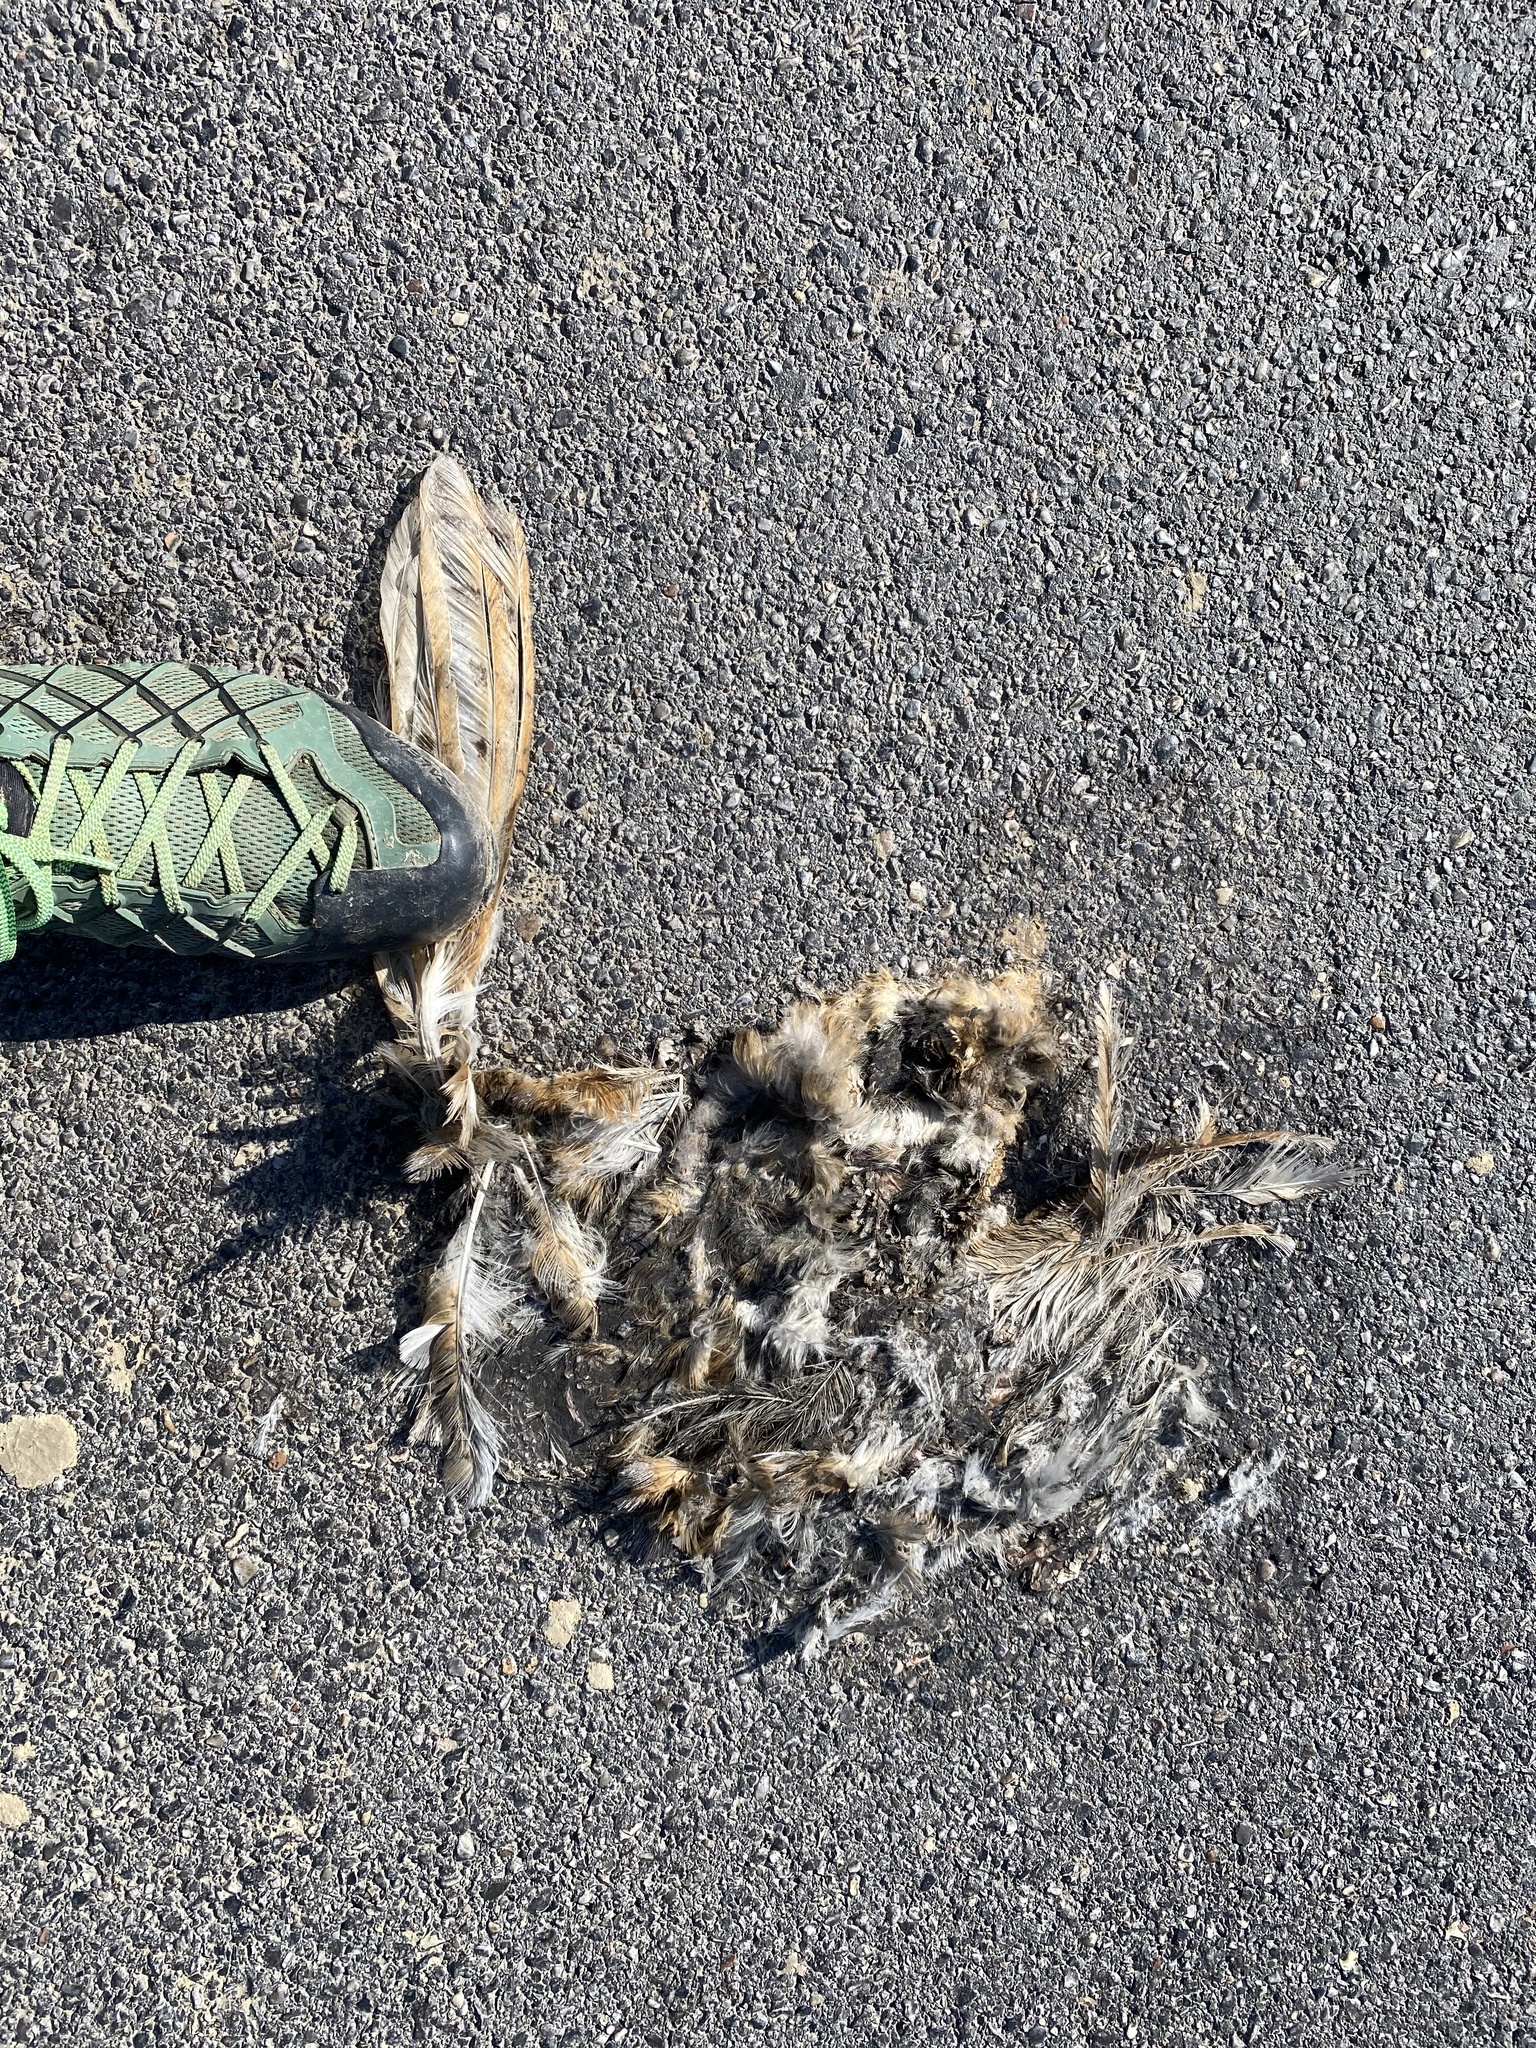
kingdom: Animalia
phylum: Chordata
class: Aves
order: Strigiformes
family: Tytonidae
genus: Tyto
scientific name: Tyto alba
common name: Barn owl
